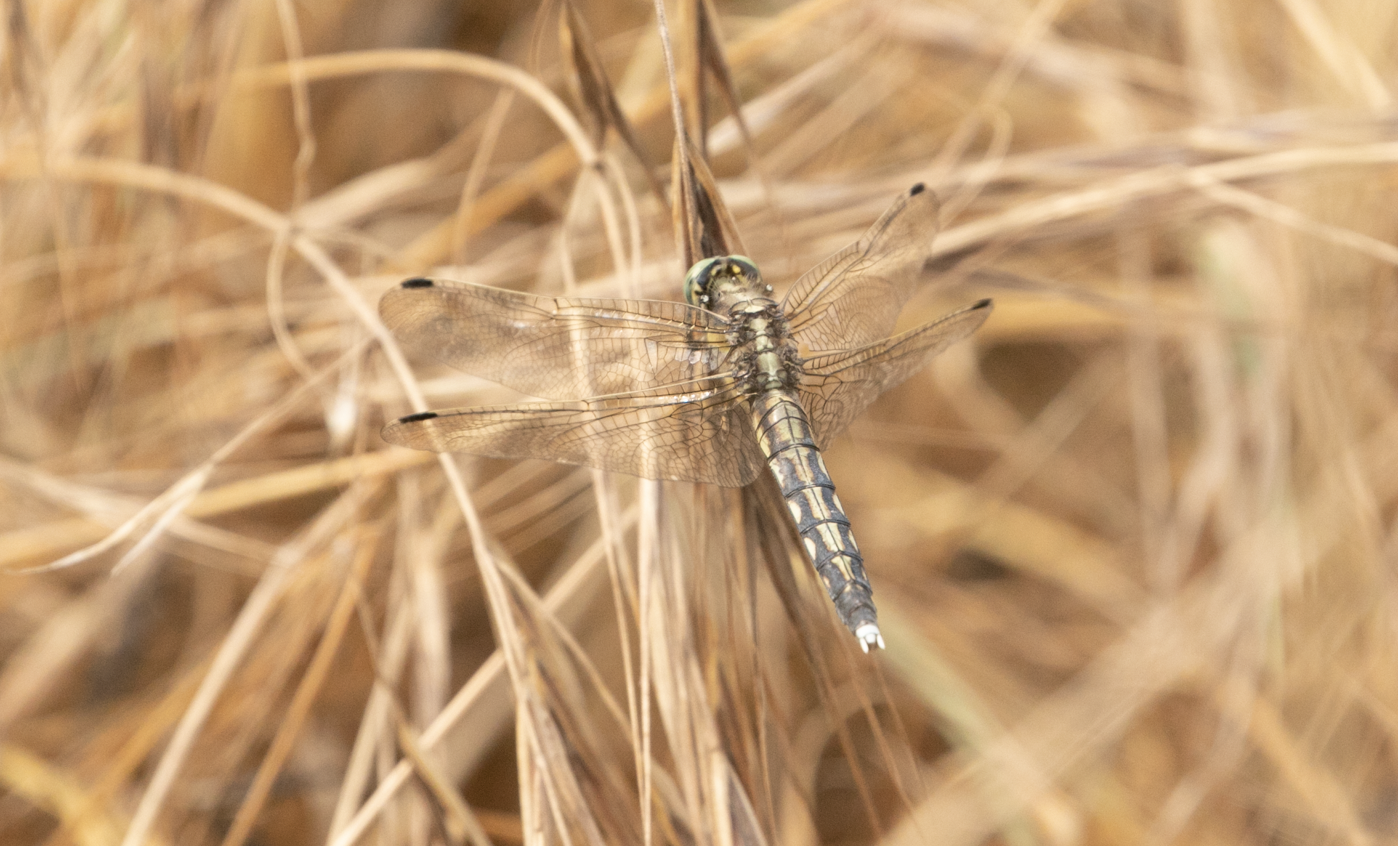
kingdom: Animalia
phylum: Arthropoda
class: Insecta
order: Odonata
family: Libellulidae
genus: Orthetrum
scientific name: Orthetrum albistylum
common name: White-tailed skimmer
